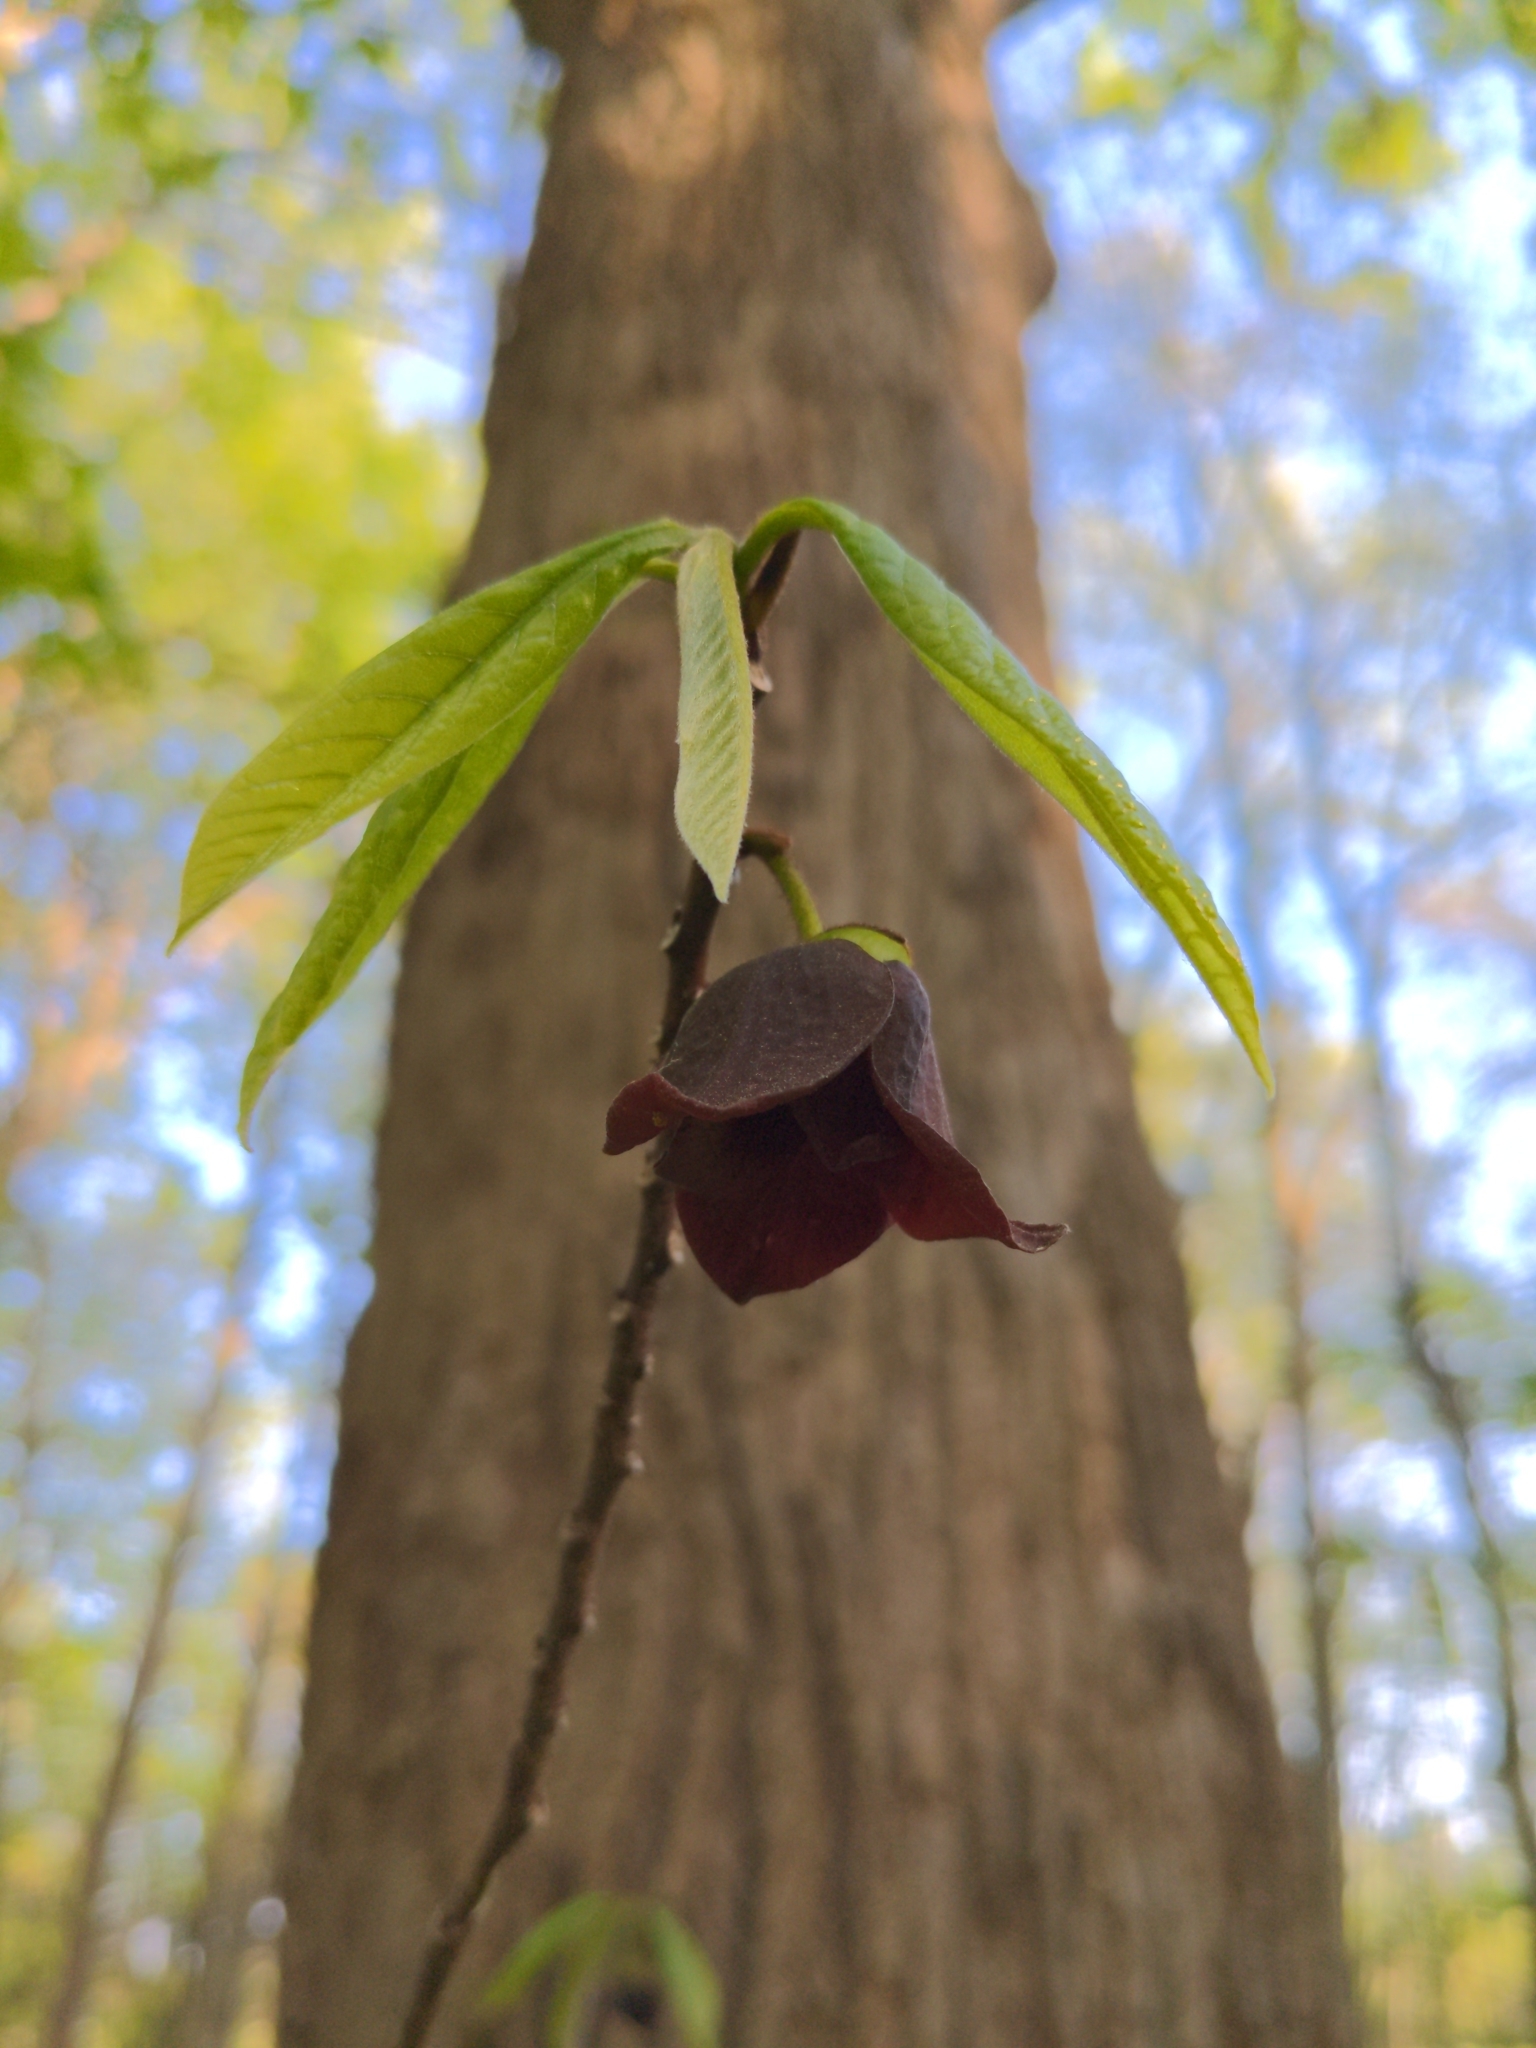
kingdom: Plantae
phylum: Tracheophyta
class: Magnoliopsida
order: Magnoliales
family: Annonaceae
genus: Asimina
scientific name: Asimina triloba
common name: Dog-banana
